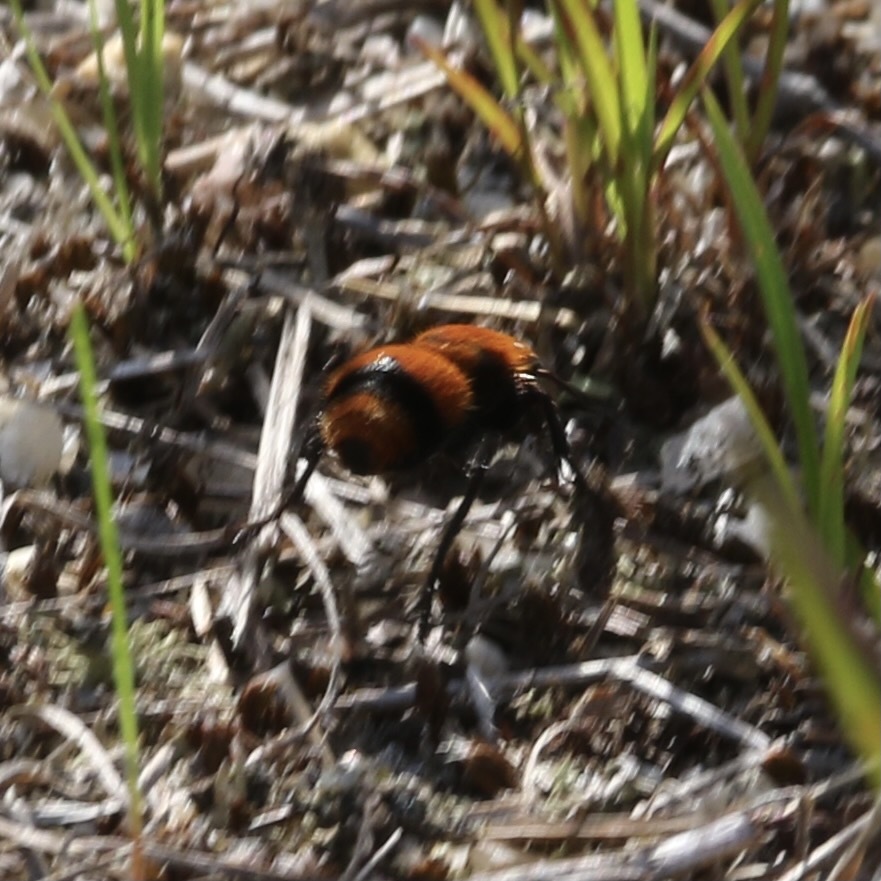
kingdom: Animalia
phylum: Arthropoda
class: Insecta
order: Hymenoptera
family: Mutillidae
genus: Dasymutilla
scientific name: Dasymutilla occidentalis
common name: Common eastern velvet ant
